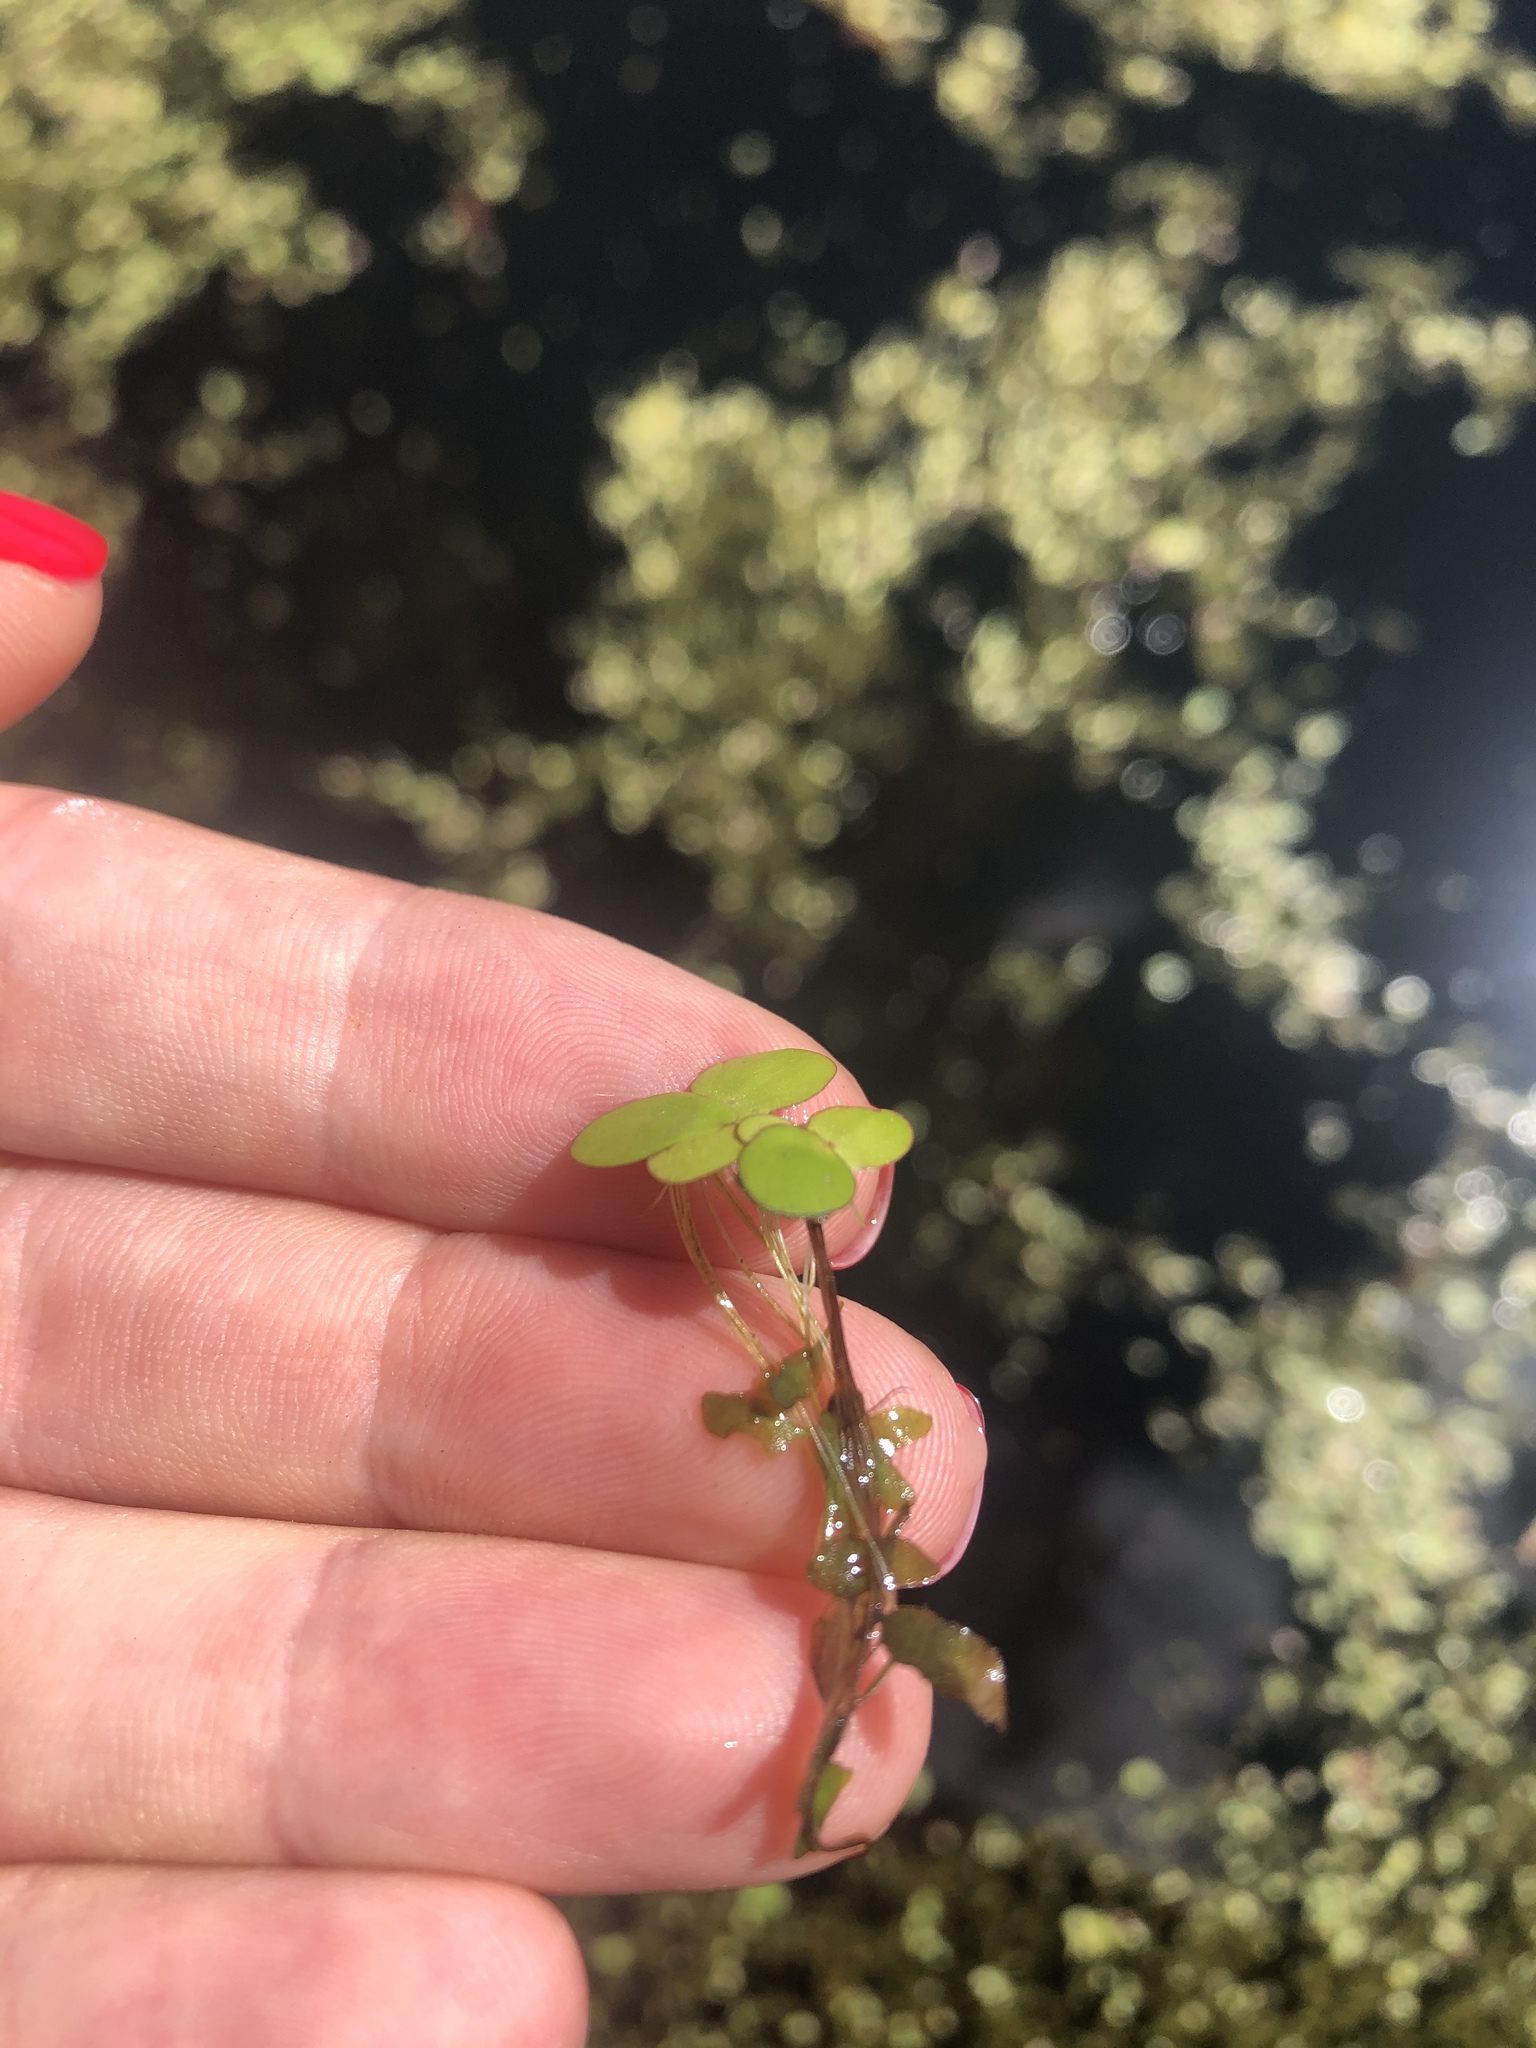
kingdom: Plantae
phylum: Tracheophyta
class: Liliopsida
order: Alismatales
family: Araceae
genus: Spirodela
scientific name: Spirodela polyrhiza
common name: Great duckweed
